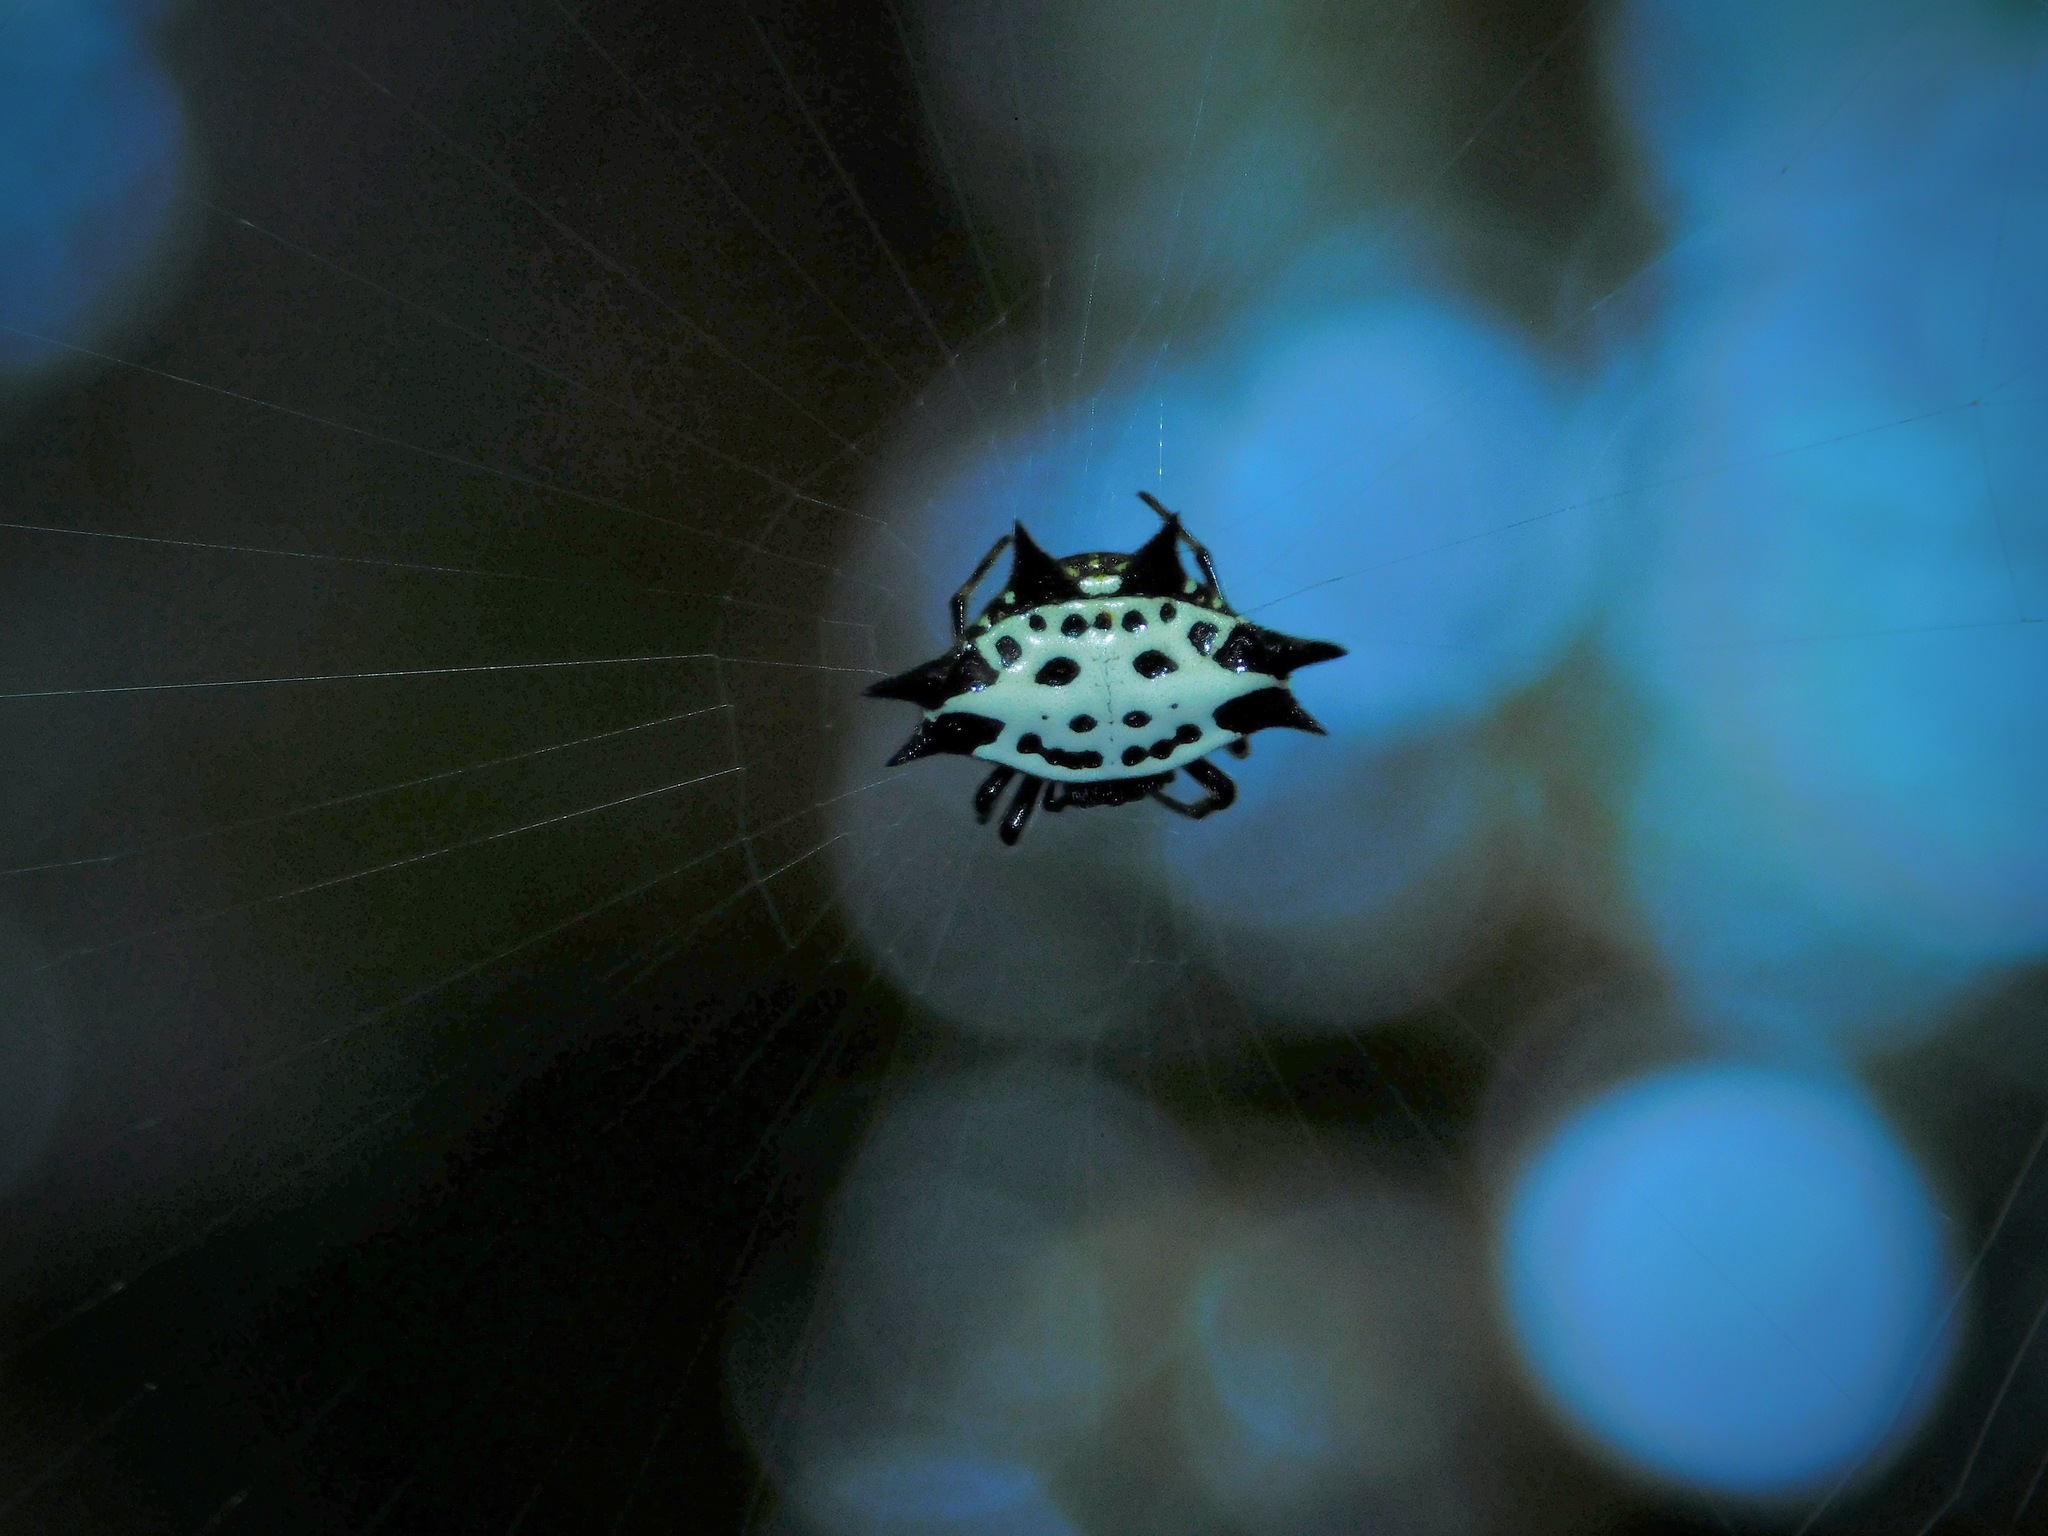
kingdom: Animalia
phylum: Arthropoda
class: Arachnida
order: Araneae
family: Araneidae
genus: Gasteracantha
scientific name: Gasteracantha cancriformis
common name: Orb weavers
